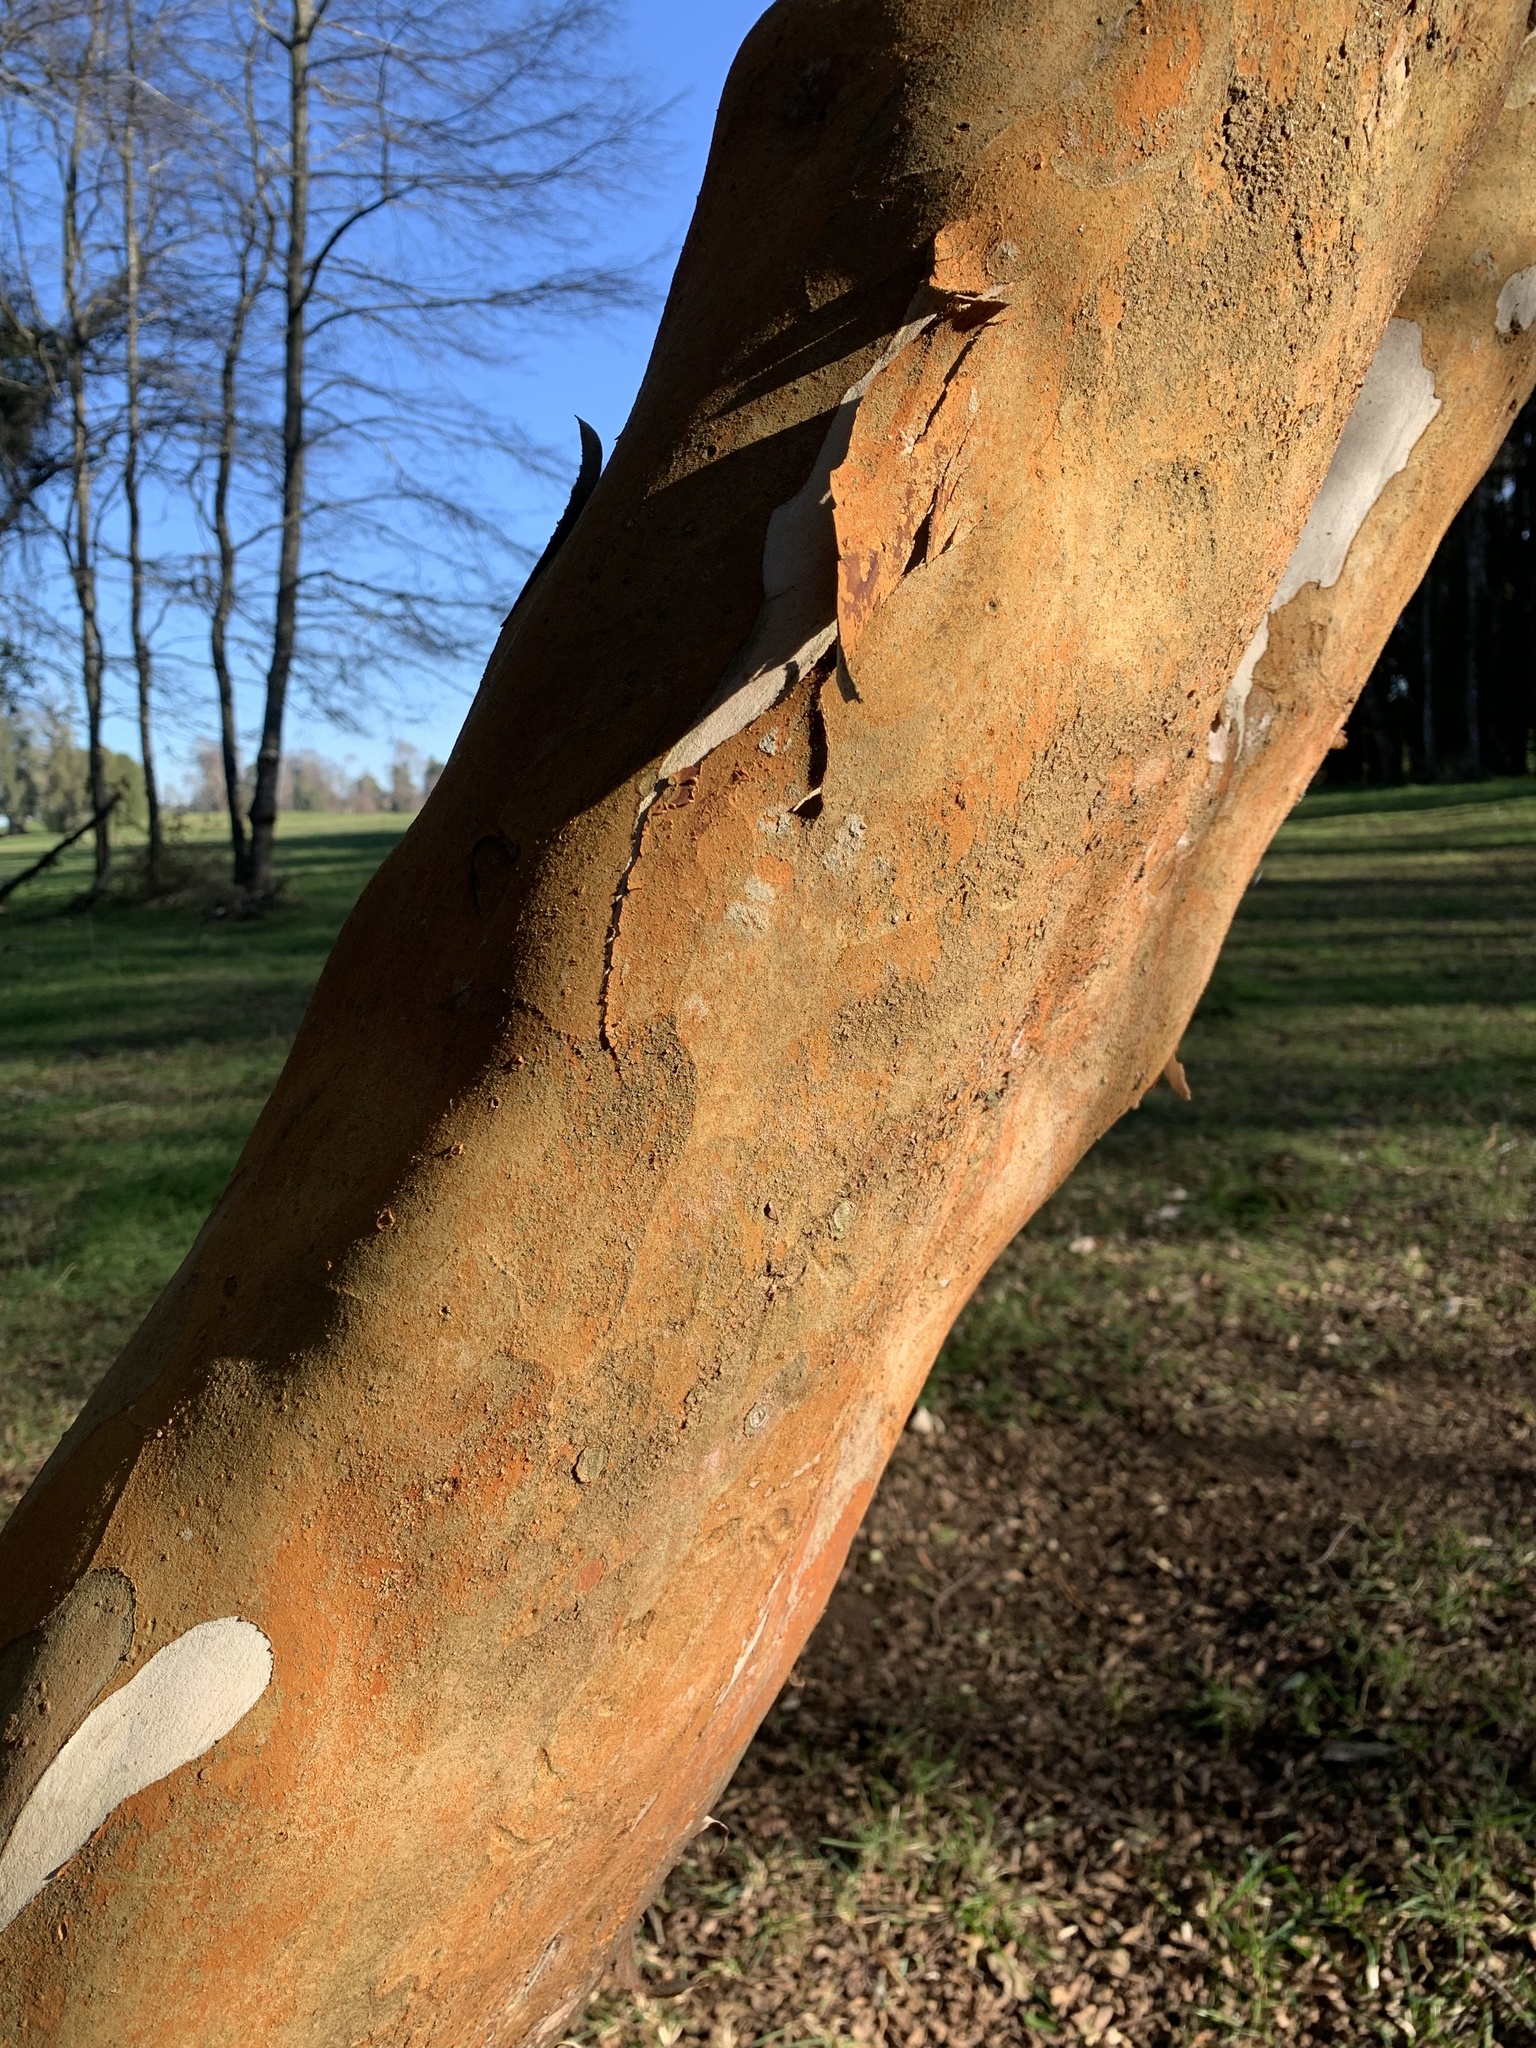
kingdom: Plantae
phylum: Tracheophyta
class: Magnoliopsida
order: Myrtales
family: Myrtaceae
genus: Luma
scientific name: Luma apiculata
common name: Chilean myrtle
